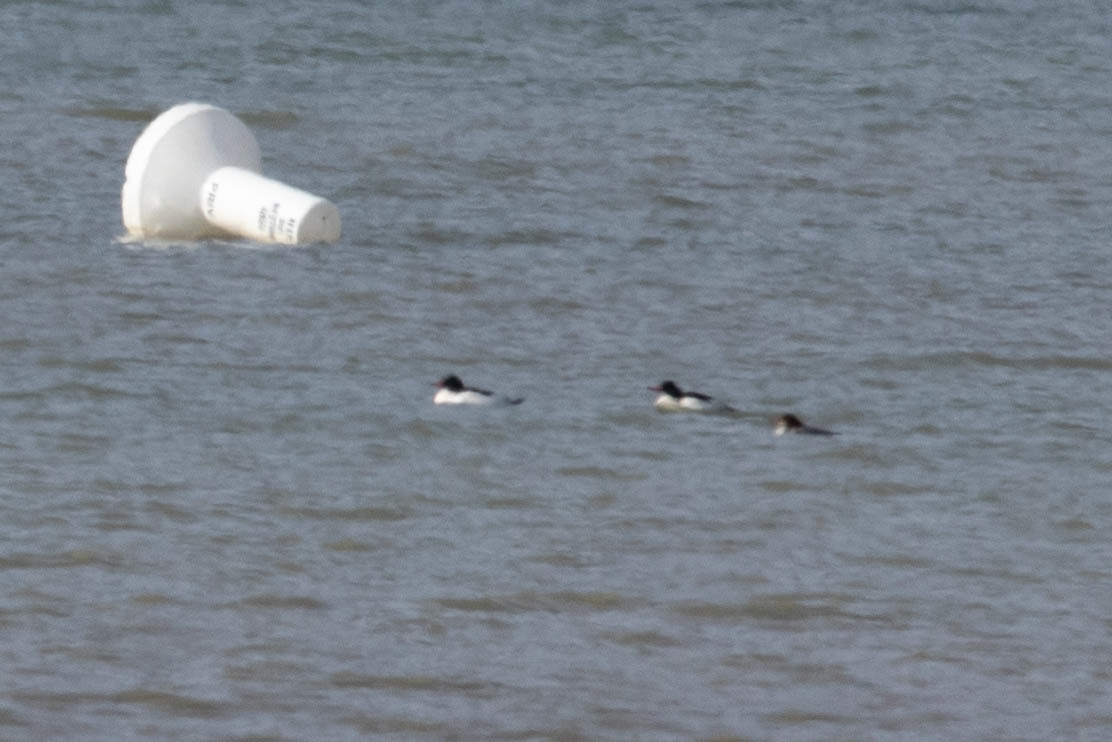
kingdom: Animalia
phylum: Chordata
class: Aves
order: Anseriformes
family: Anatidae
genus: Mergus
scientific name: Mergus merganser
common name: Common merganser
